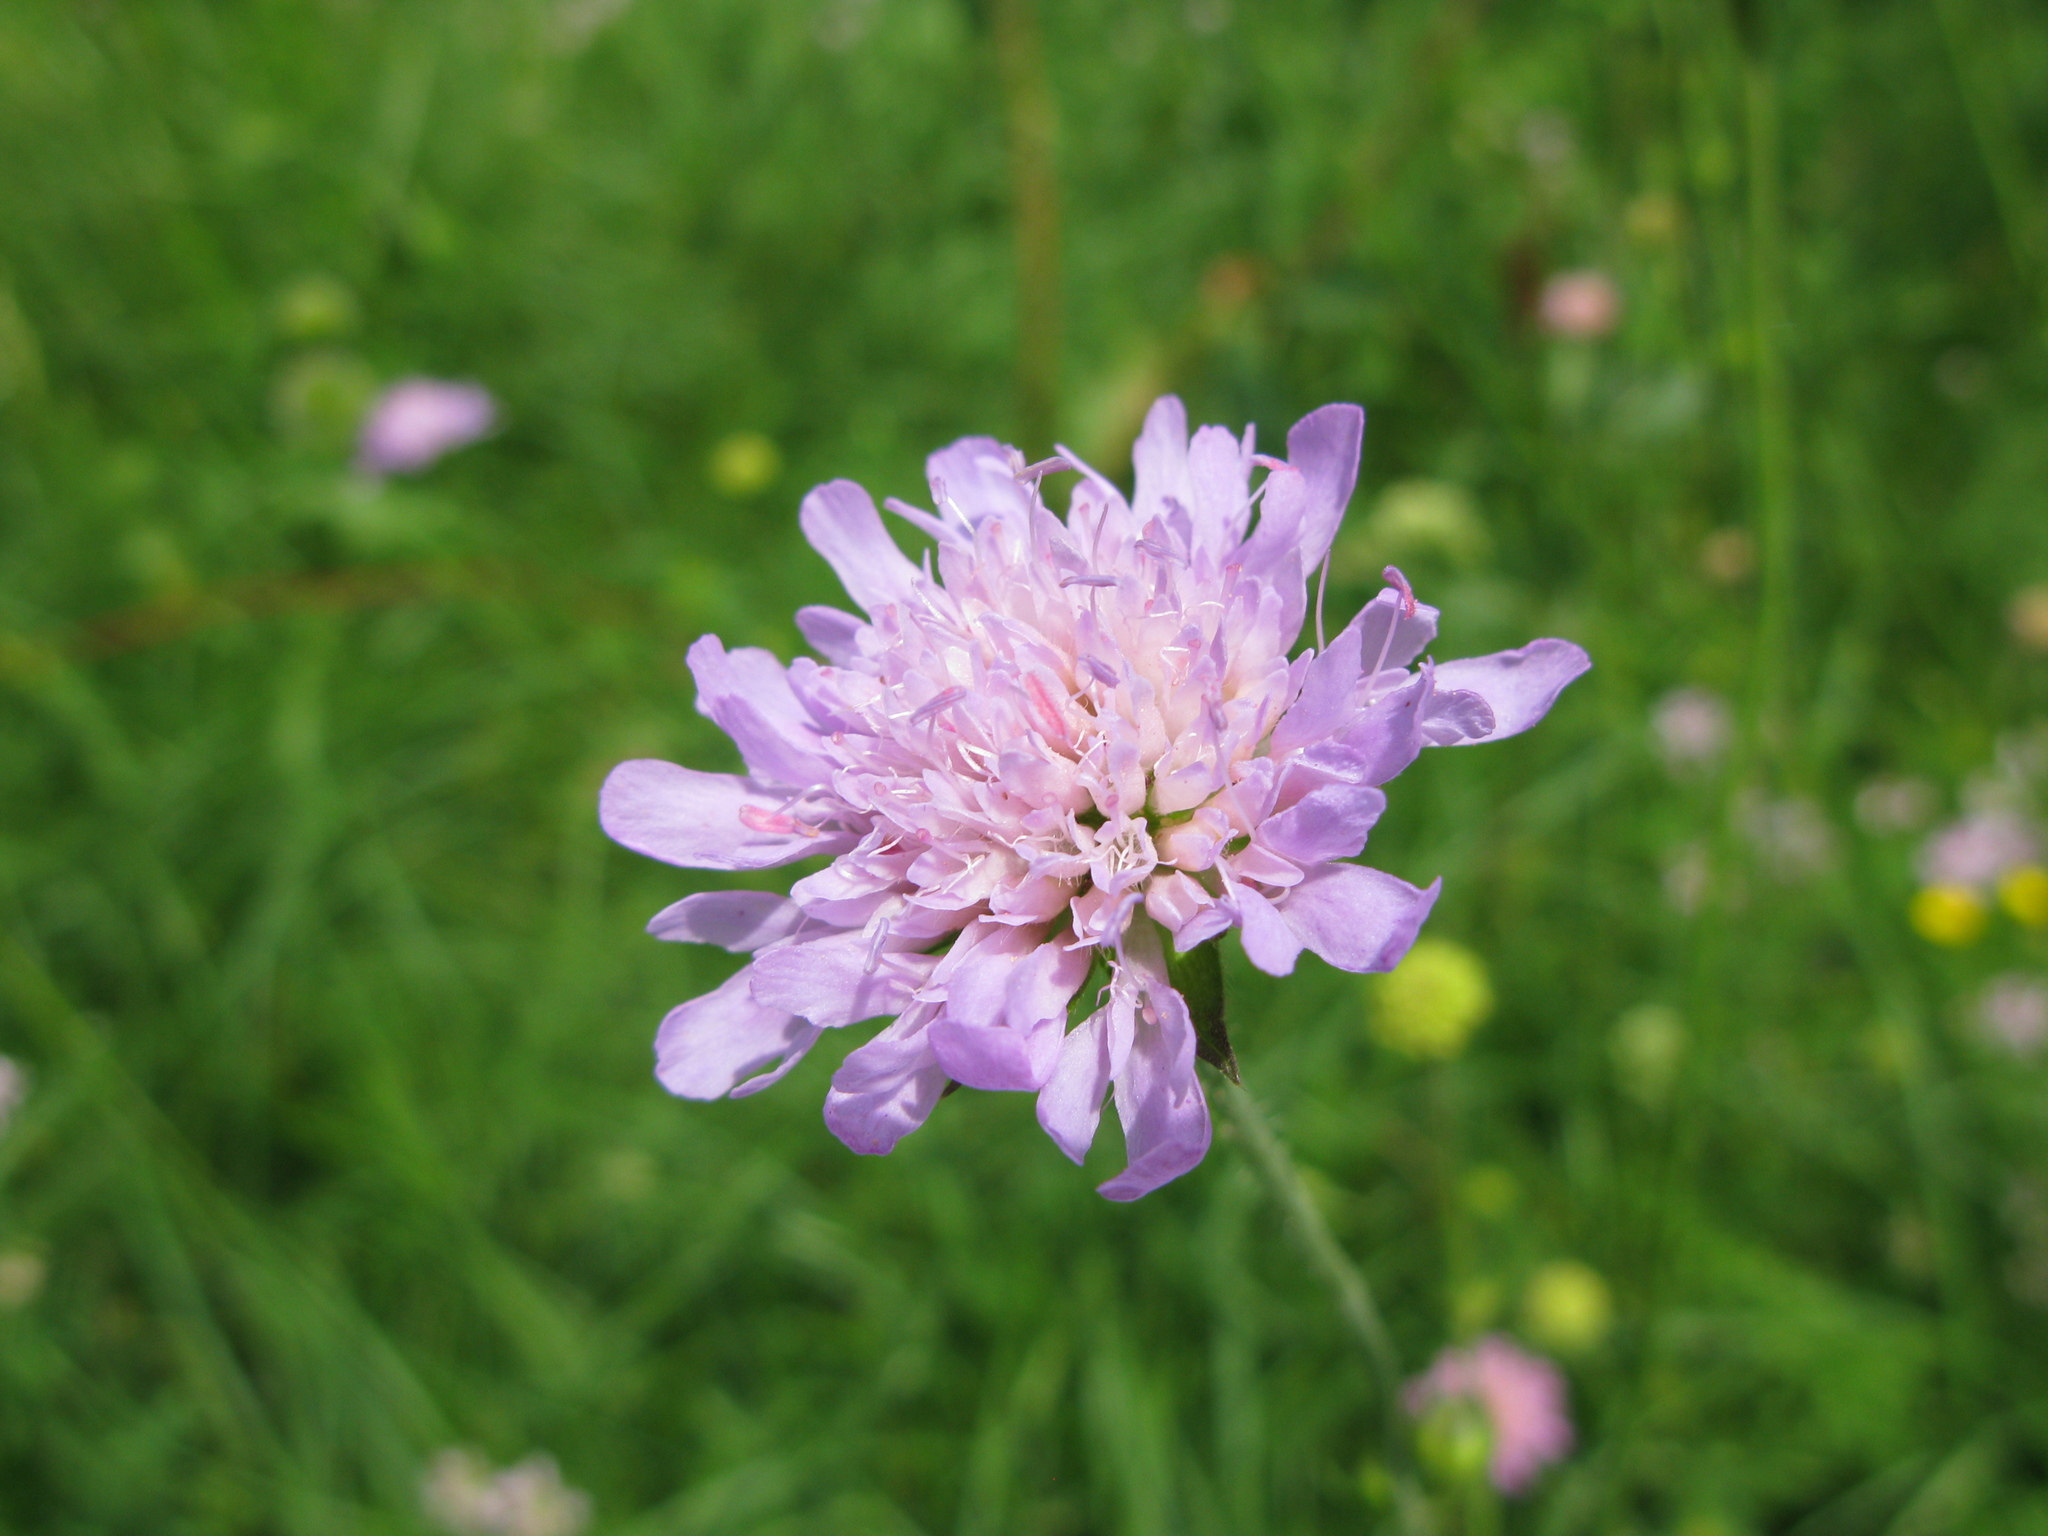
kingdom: Plantae
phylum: Tracheophyta
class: Magnoliopsida
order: Dipsacales
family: Caprifoliaceae
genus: Knautia
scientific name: Knautia arvensis
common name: Field scabiosa
